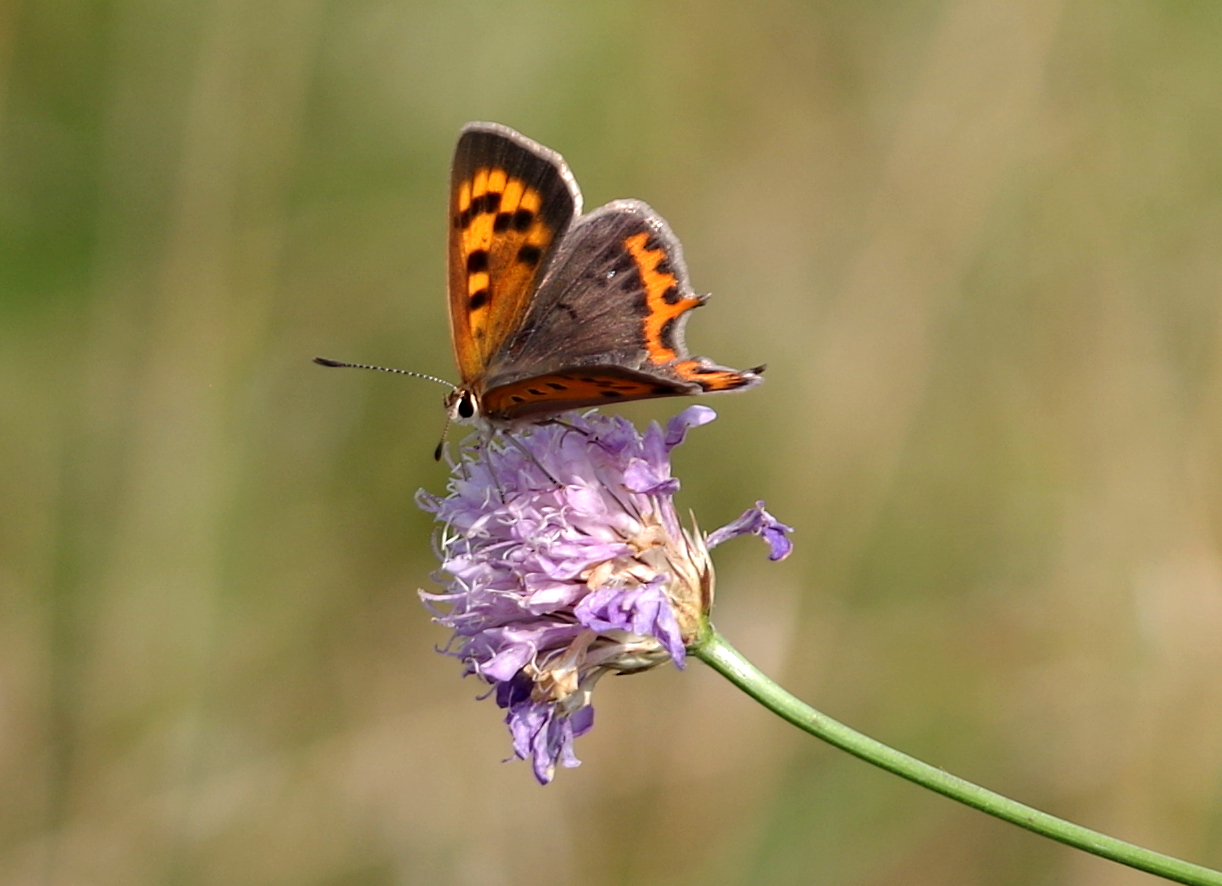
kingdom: Animalia
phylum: Arthropoda
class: Insecta
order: Lepidoptera
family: Lycaenidae
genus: Lycaena
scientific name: Lycaena phlaeas
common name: Small copper
